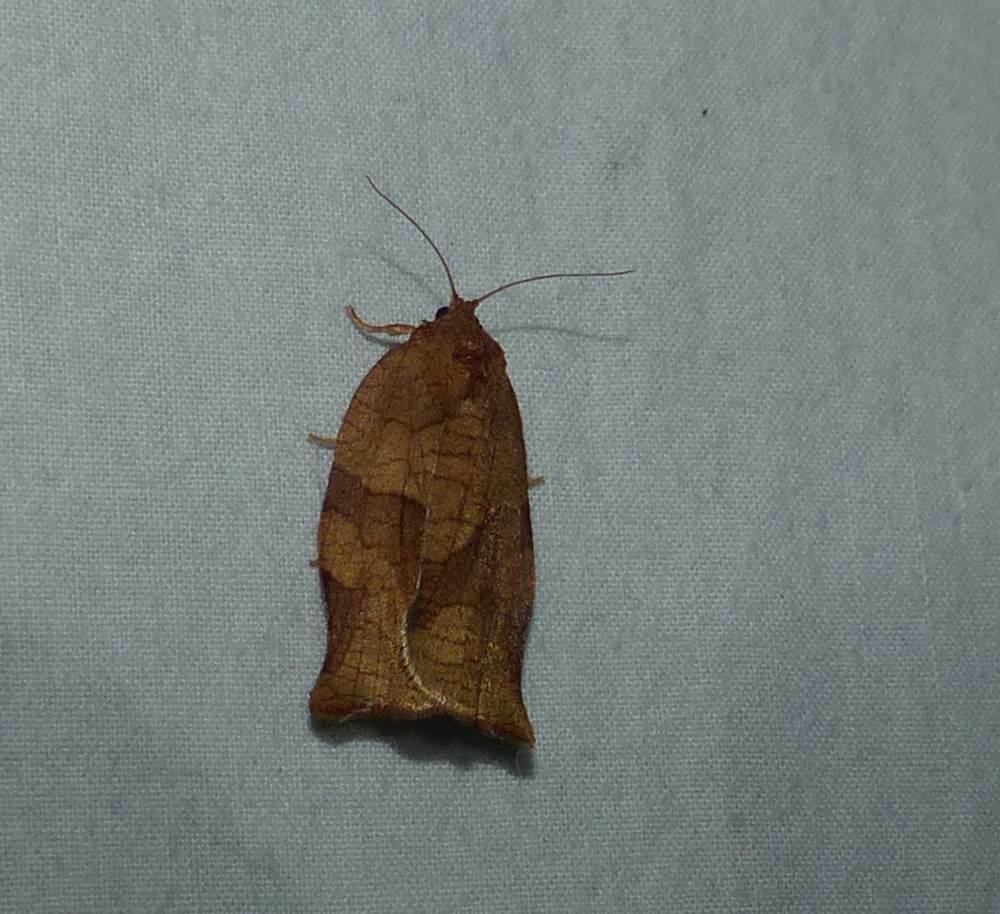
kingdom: Animalia
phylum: Arthropoda
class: Insecta
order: Lepidoptera
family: Tortricidae
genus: Choristoneura
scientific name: Choristoneura rosaceana
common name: Oblique-banded leafroller moth
